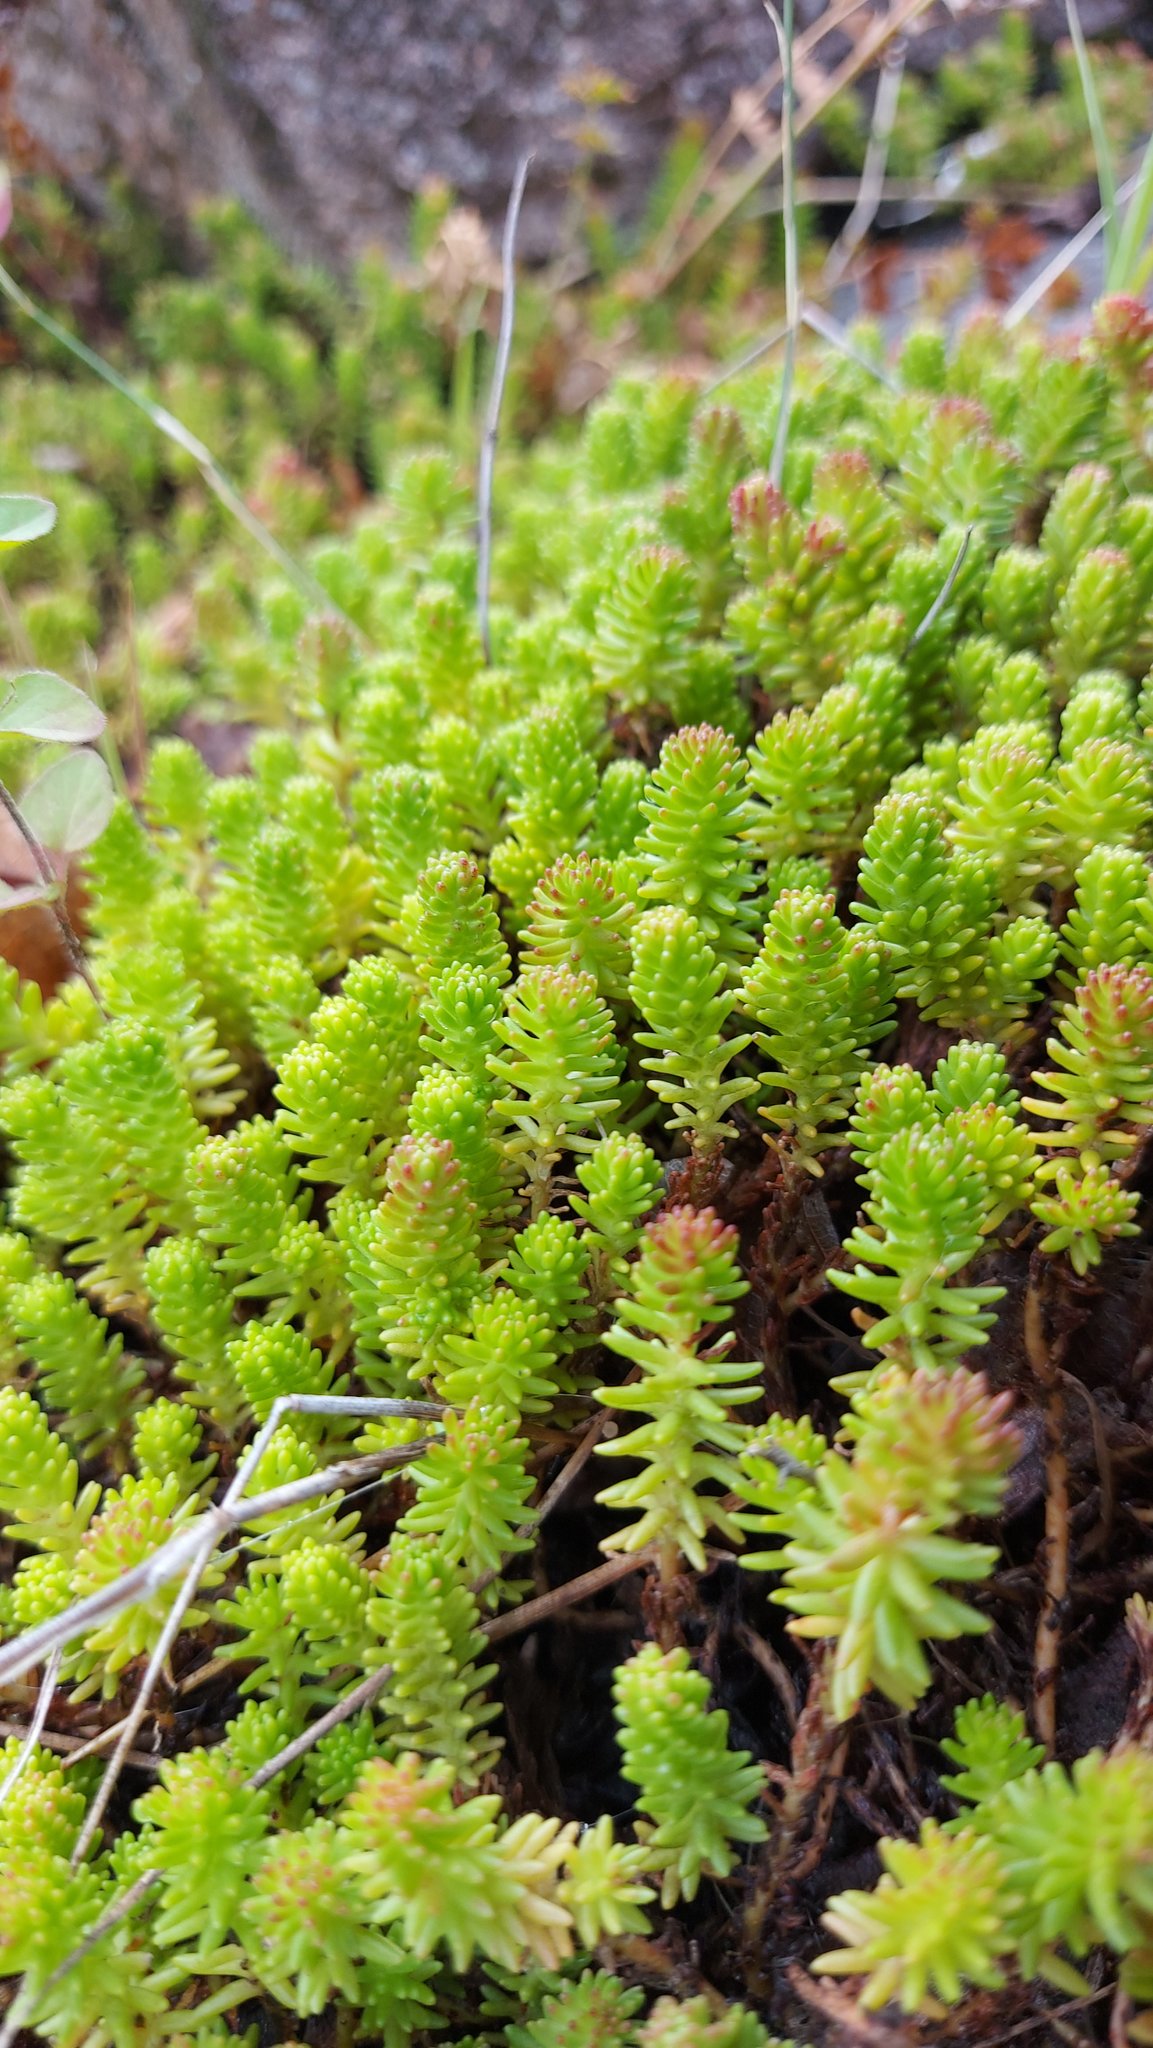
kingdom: Plantae
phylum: Tracheophyta
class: Magnoliopsida
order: Saxifragales
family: Crassulaceae
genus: Sedum
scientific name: Sedum sexangulare
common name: Tasteless stonecrop
